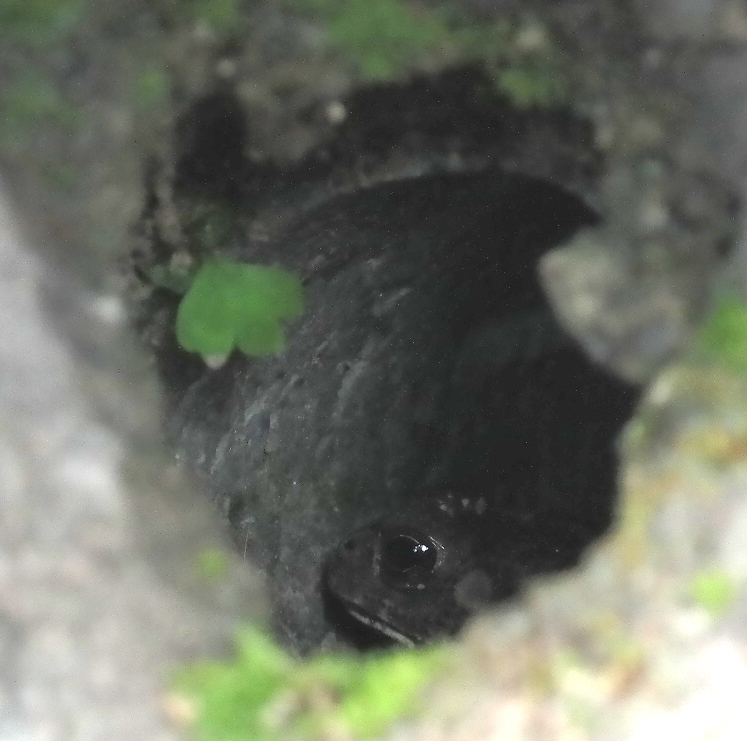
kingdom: Animalia
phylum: Chordata
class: Amphibia
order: Anura
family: Bufonidae
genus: Duttaphrynus
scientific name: Duttaphrynus melanostictus
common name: Common sunda toad
